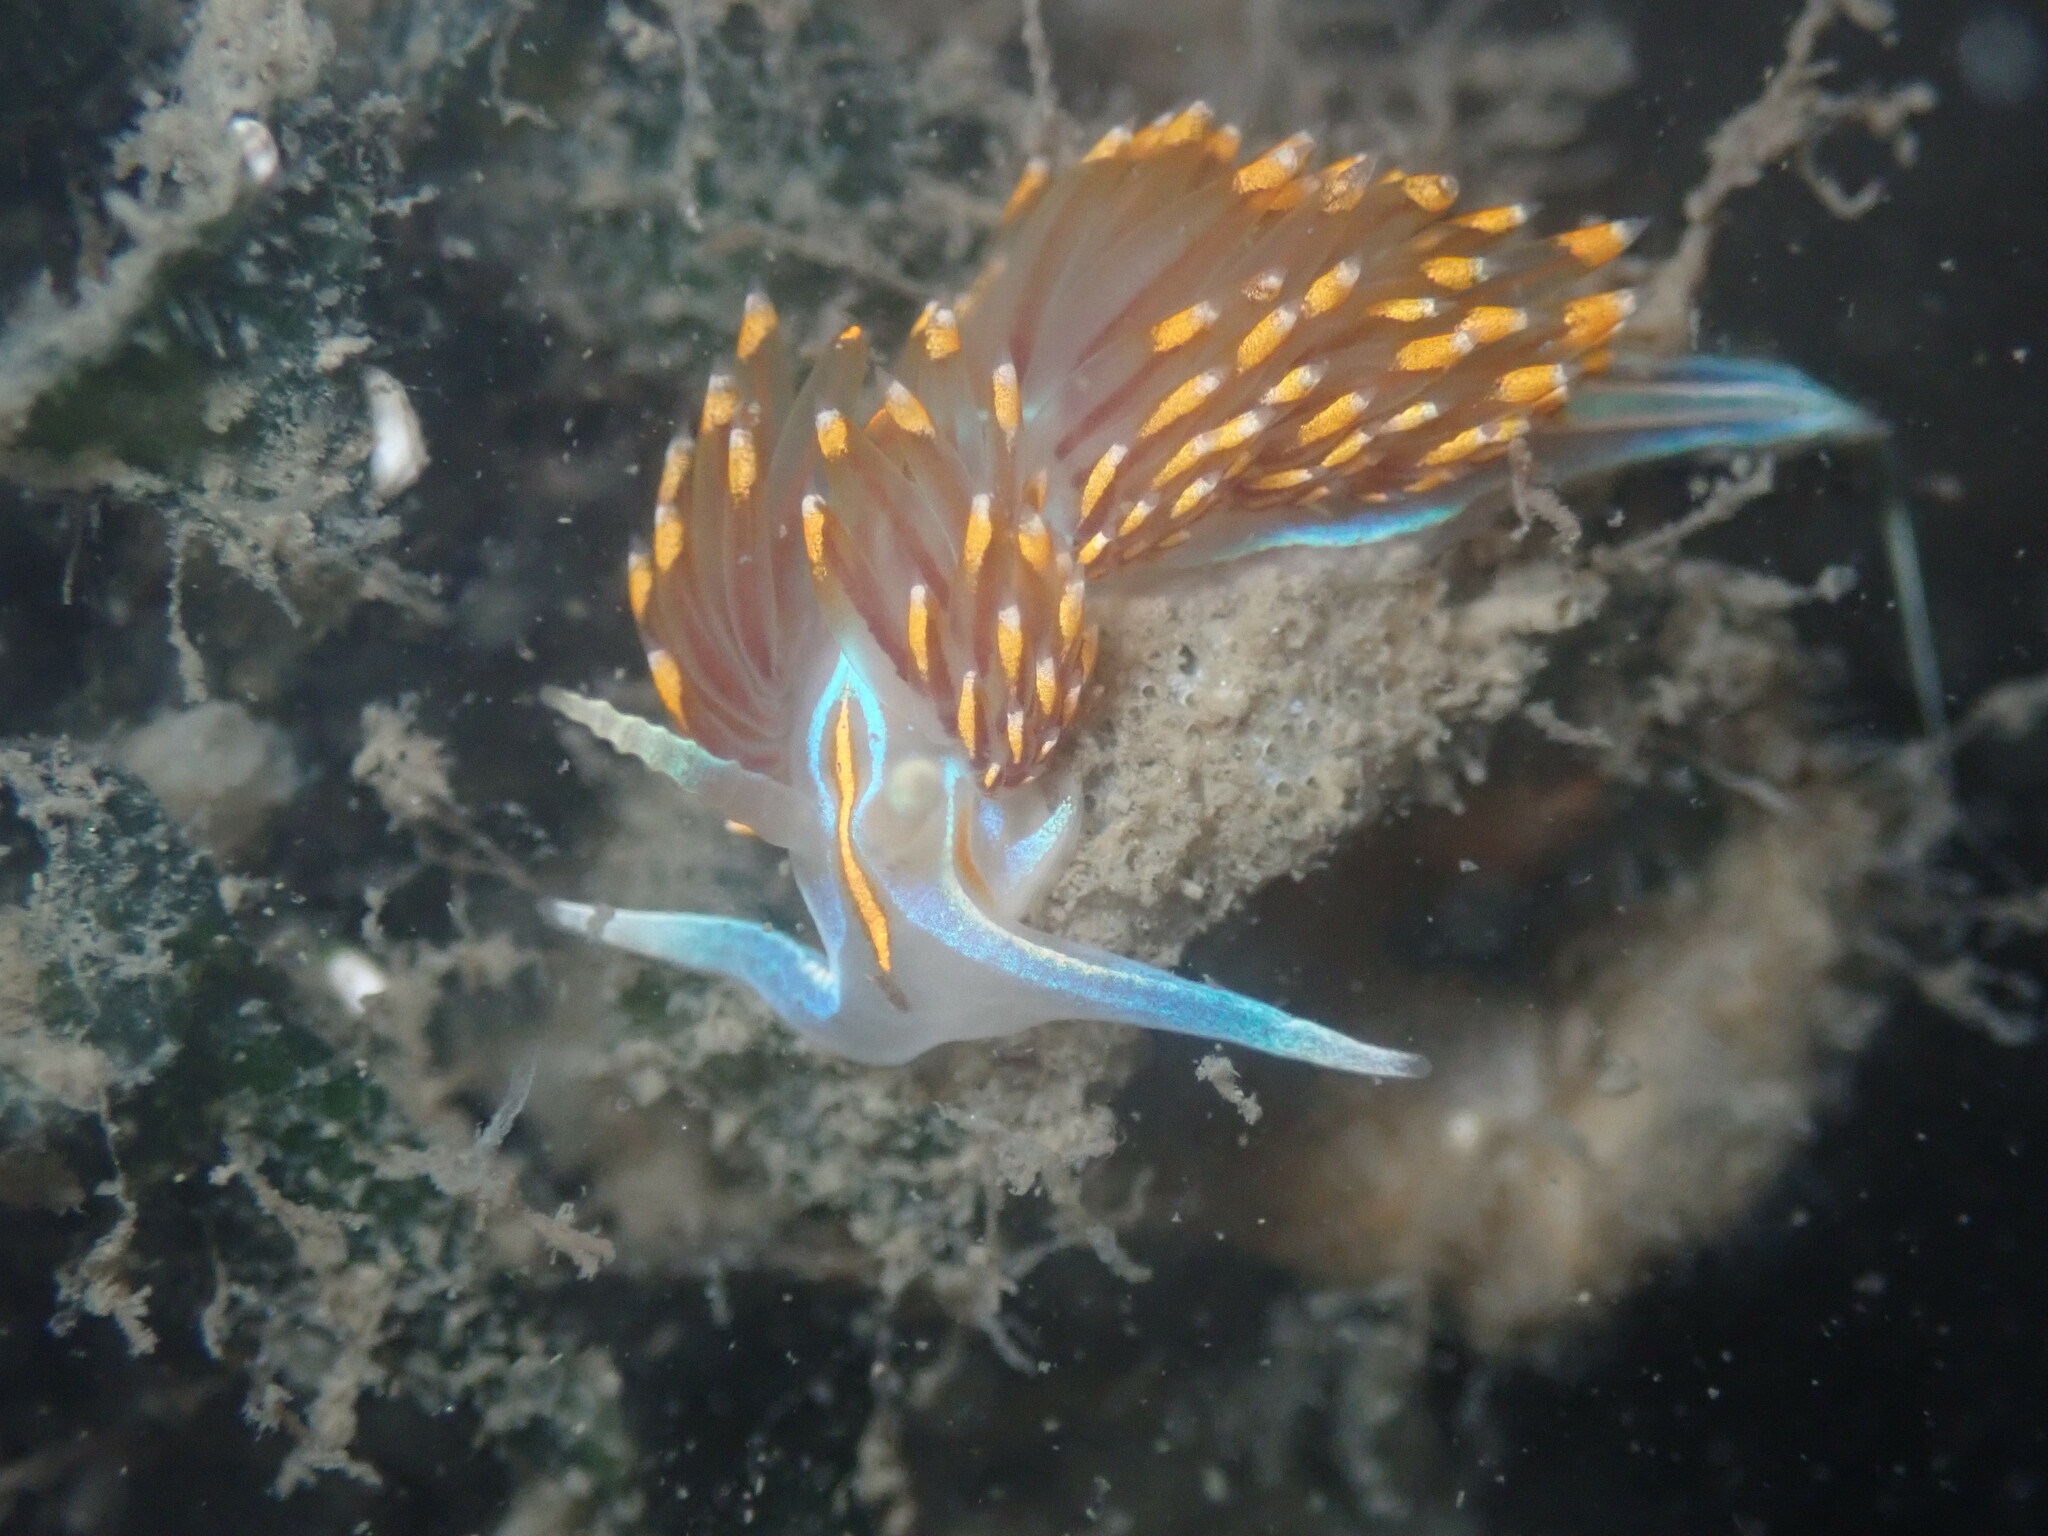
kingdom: Animalia
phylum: Mollusca
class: Gastropoda
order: Nudibranchia
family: Myrrhinidae
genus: Hermissenda
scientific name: Hermissenda opalescens
